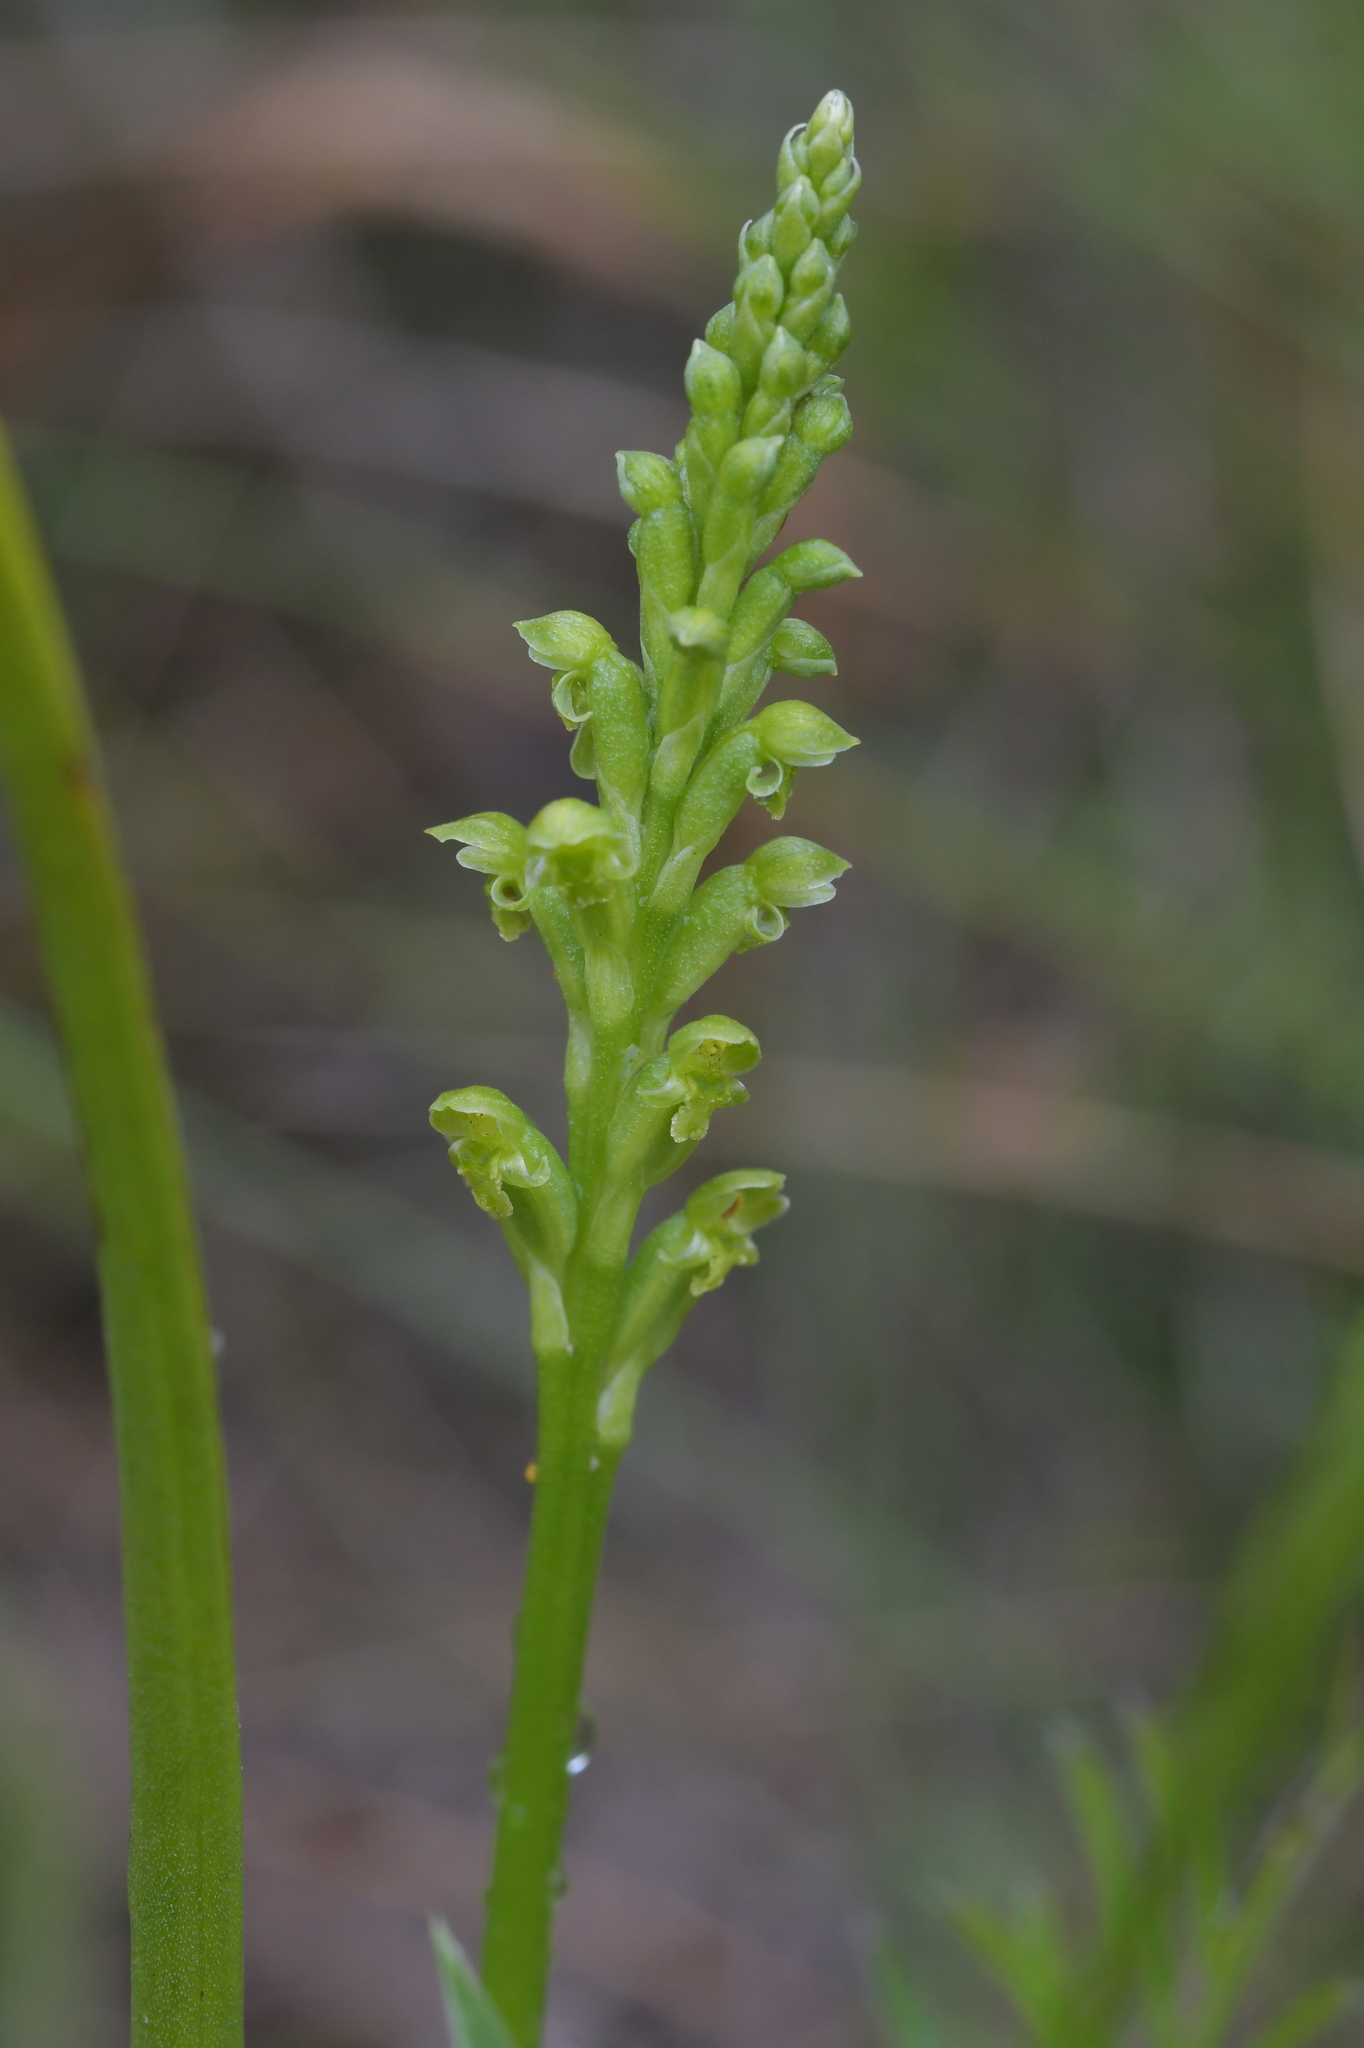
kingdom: Plantae
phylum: Tracheophyta
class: Liliopsida
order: Asparagales
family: Orchidaceae
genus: Microtis
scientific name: Microtis unifolia
